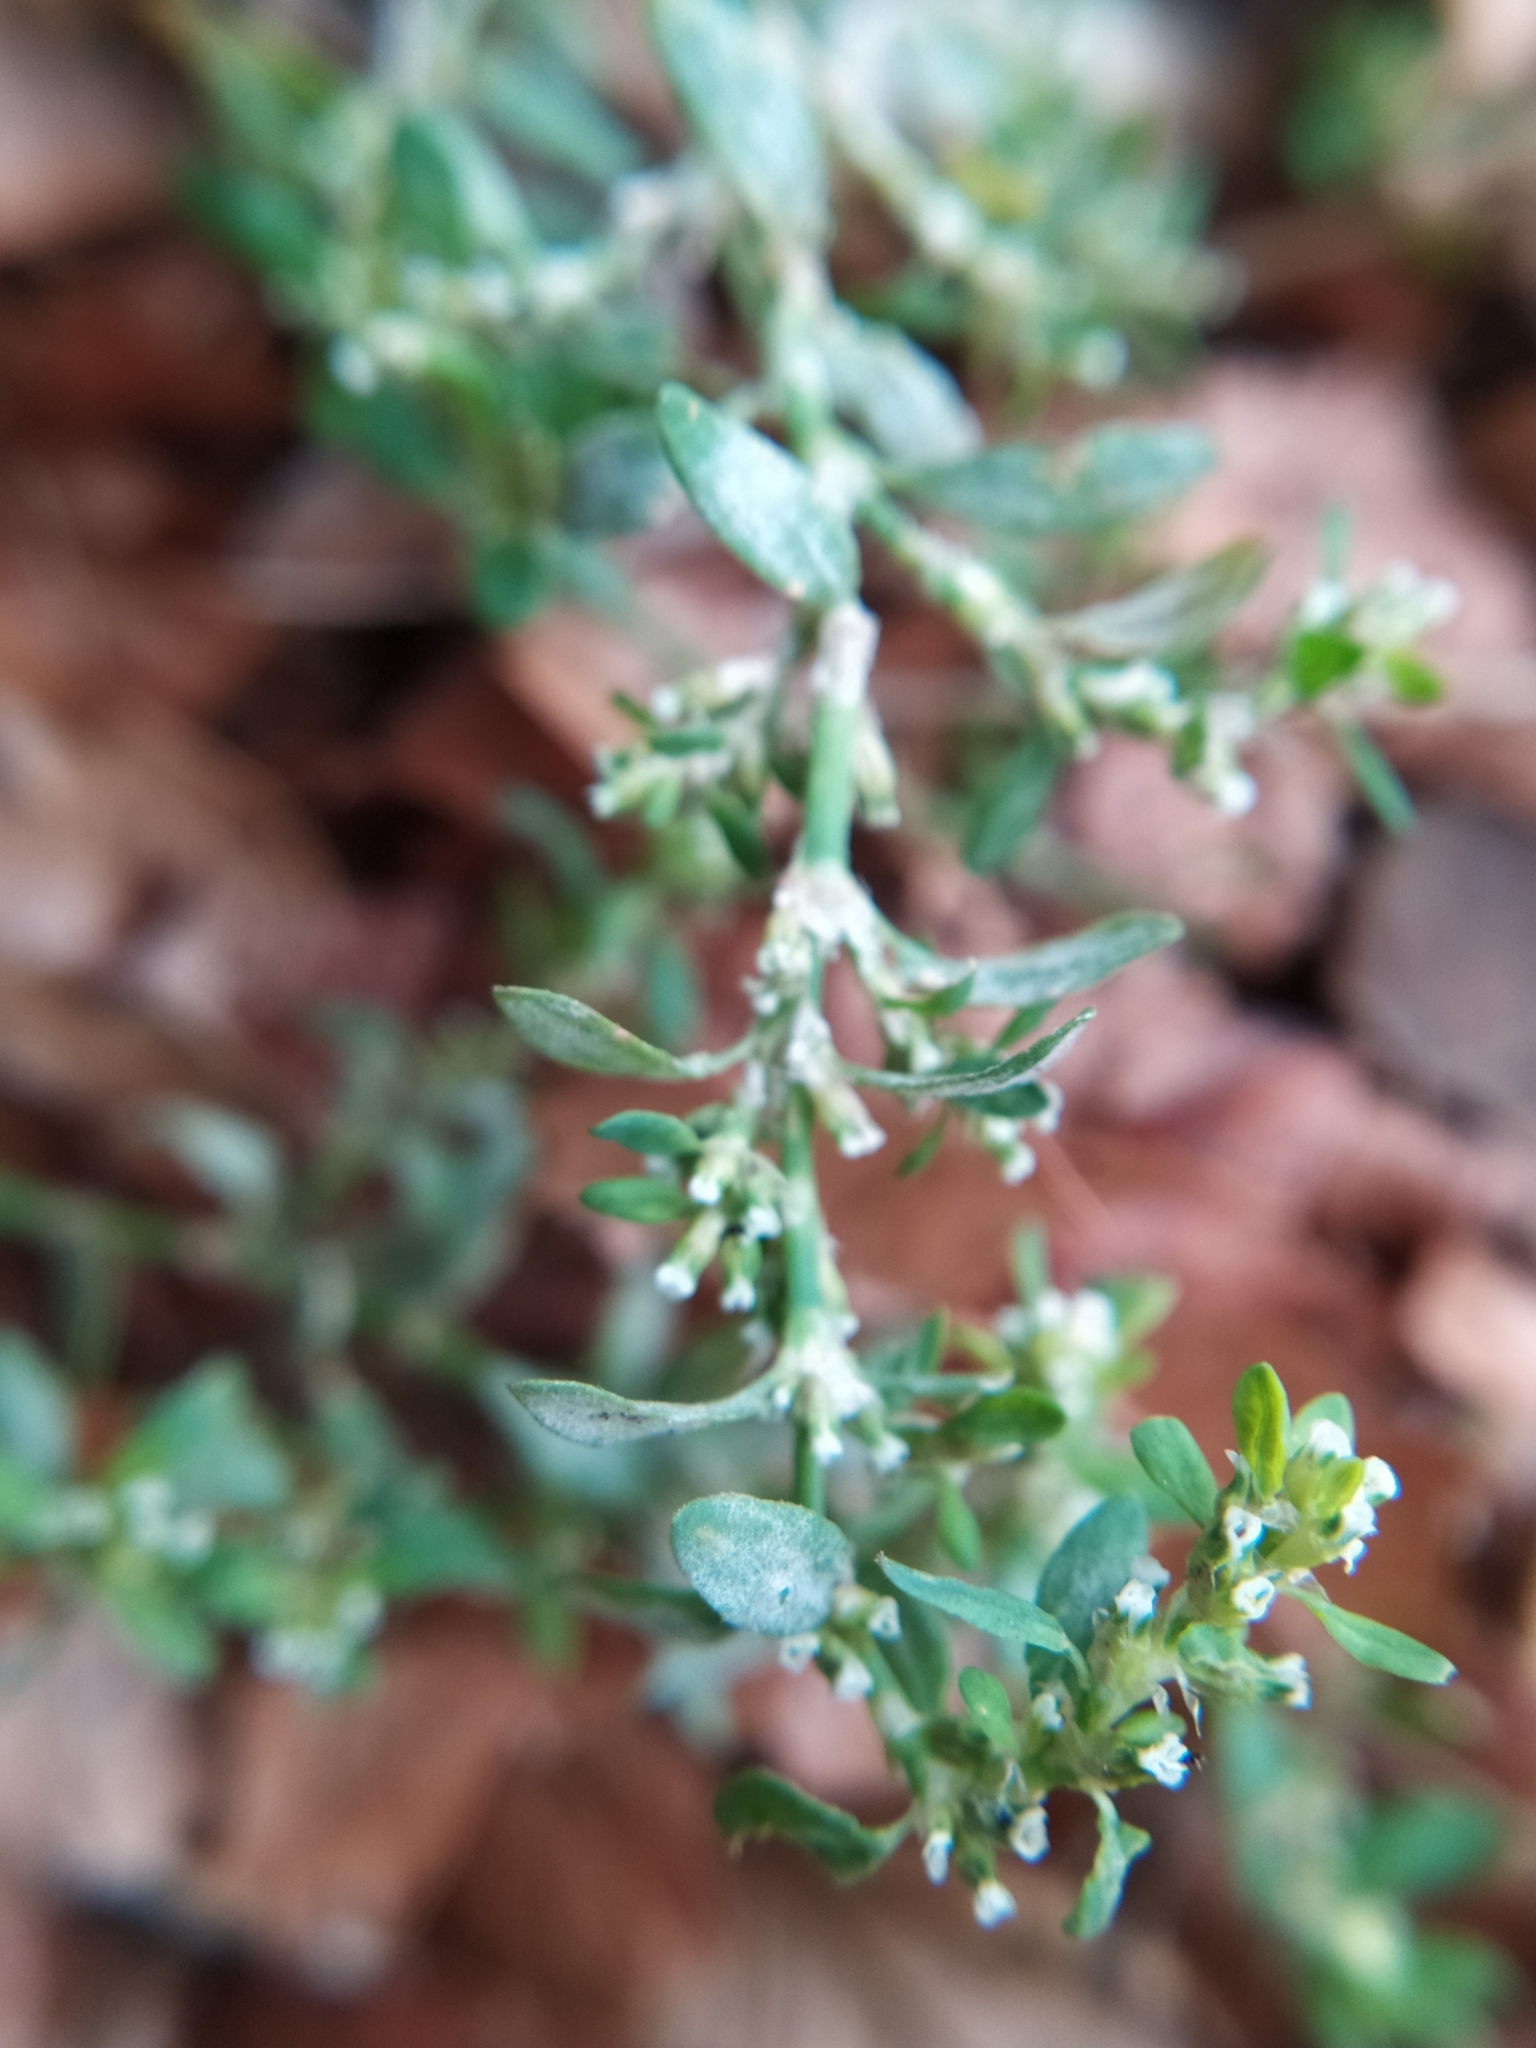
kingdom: Fungi
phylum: Ascomycota
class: Leotiomycetes
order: Helotiales
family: Erysiphaceae
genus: Erysiphe
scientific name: Erysiphe polygoni
